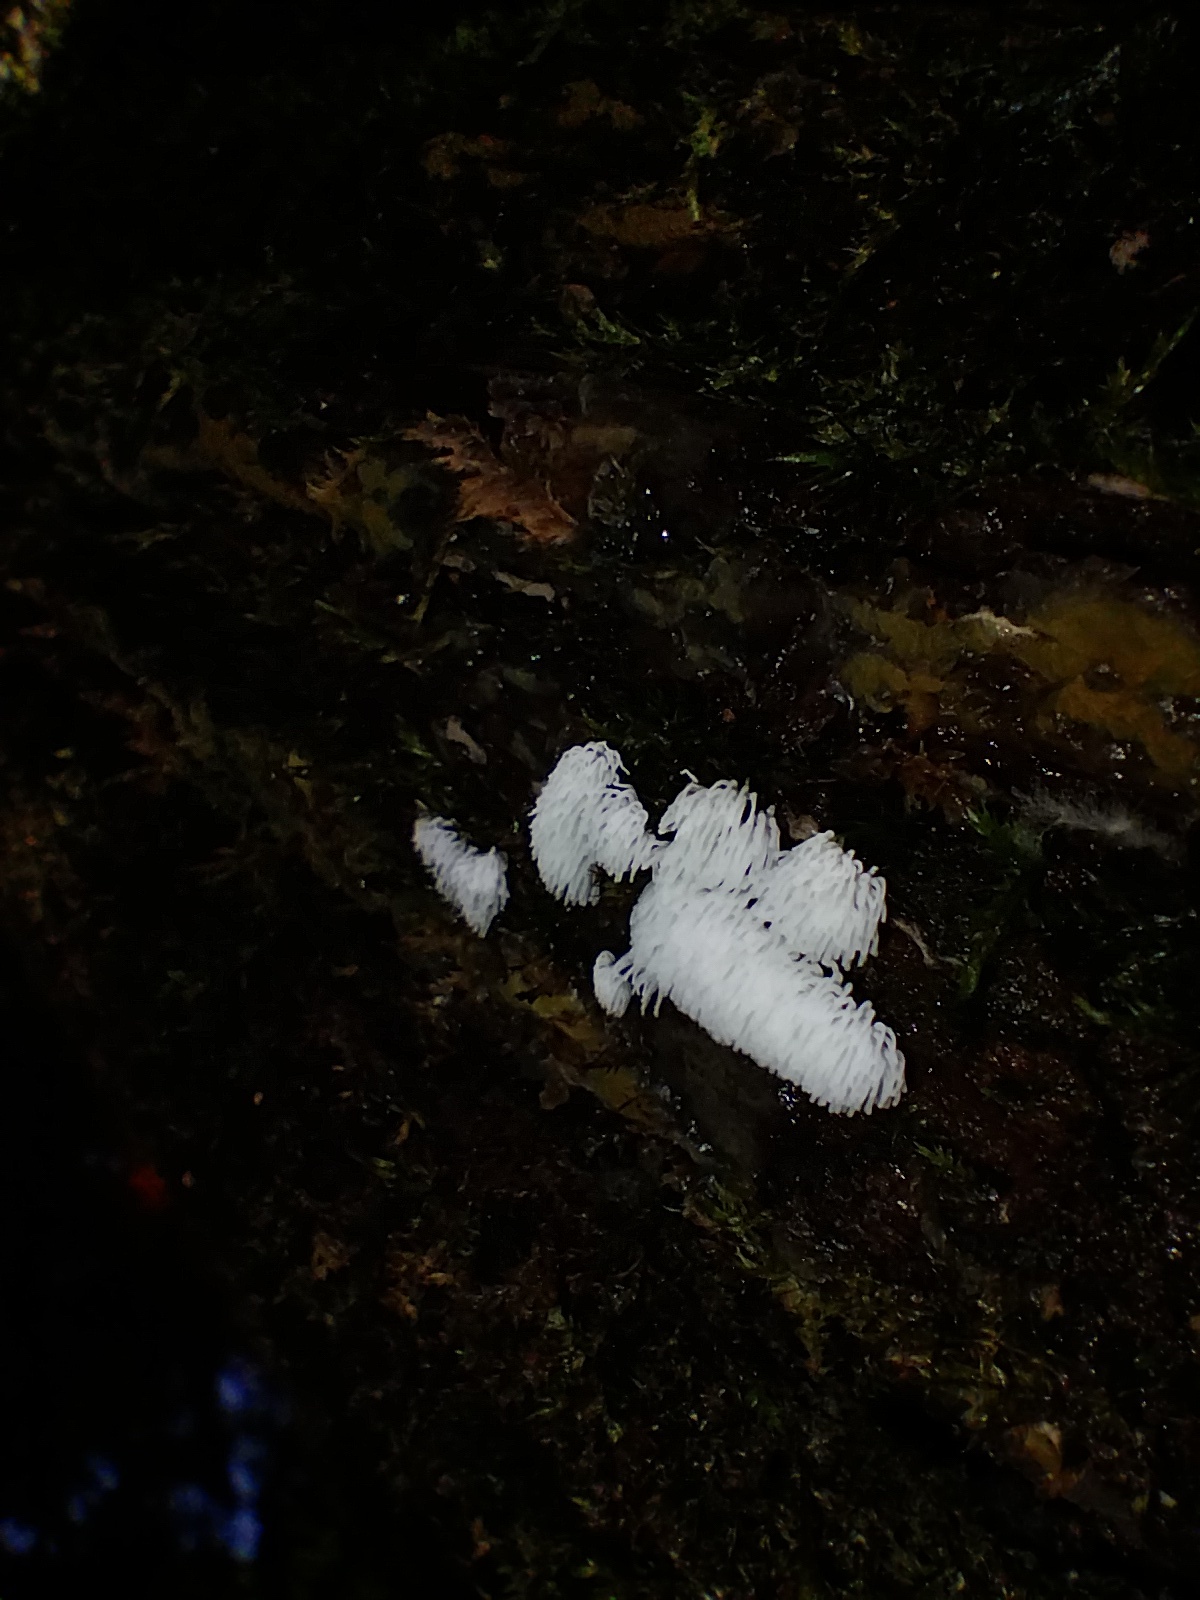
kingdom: Protozoa
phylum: Mycetozoa
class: Protosteliomycetes
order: Ceratiomyxales
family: Ceratiomyxaceae
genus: Ceratiomyxa
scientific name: Ceratiomyxa fruticulosa
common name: Honeycomb coral slime mold
